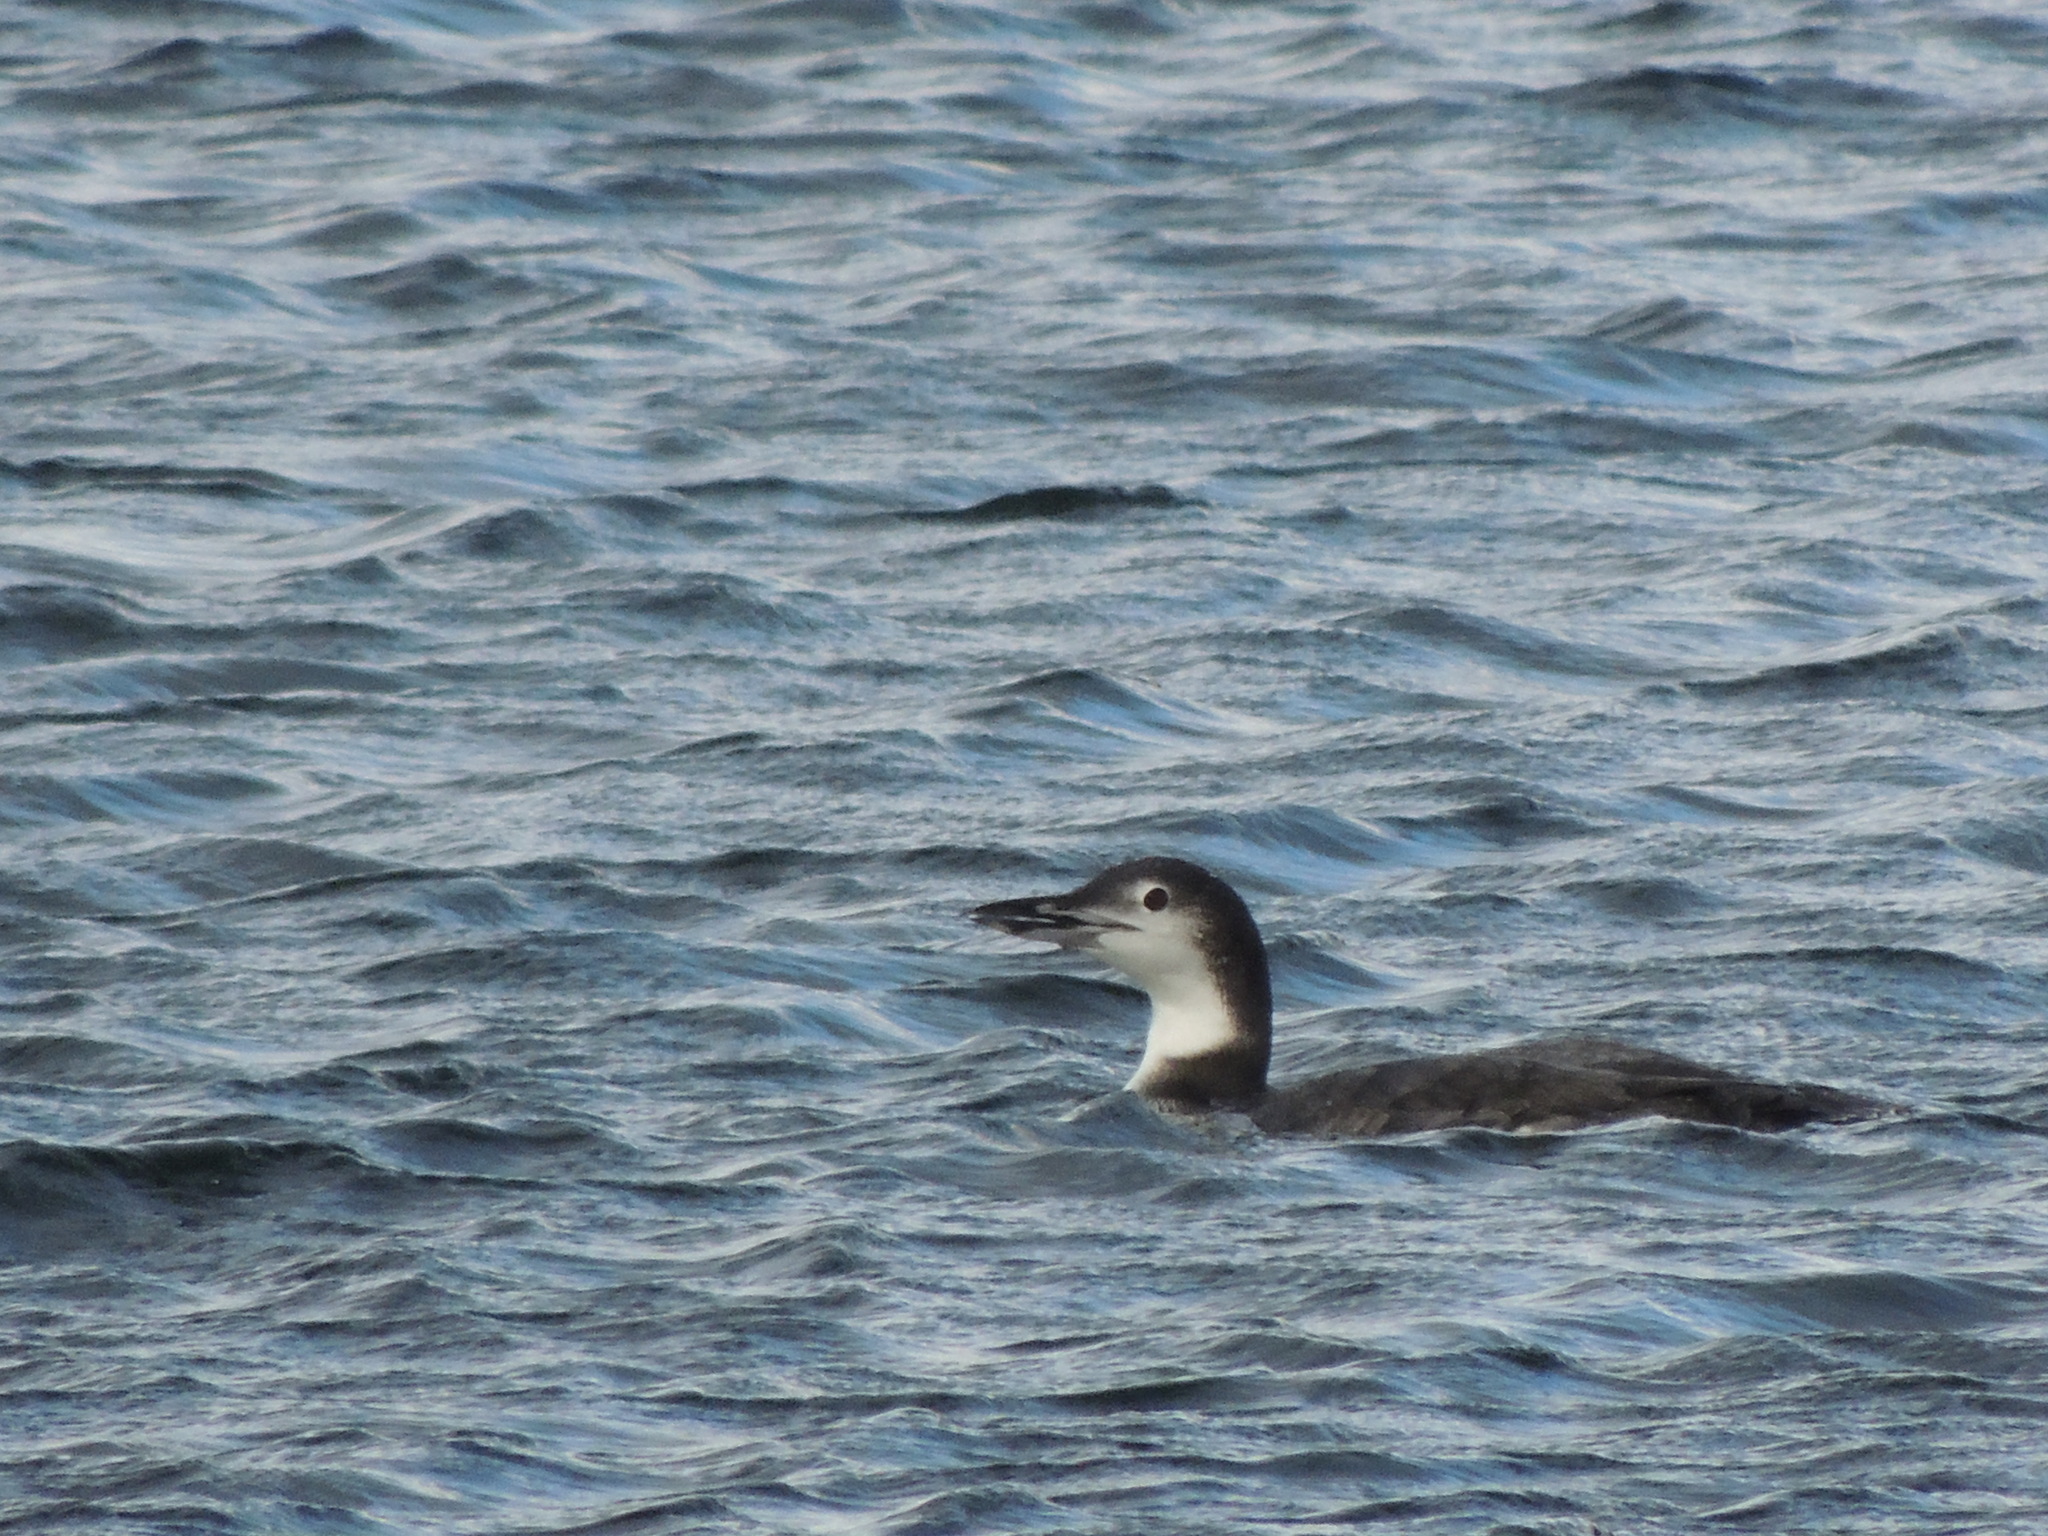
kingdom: Animalia
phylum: Chordata
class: Aves
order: Gaviiformes
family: Gaviidae
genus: Gavia
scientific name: Gavia immer
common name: Common loon
